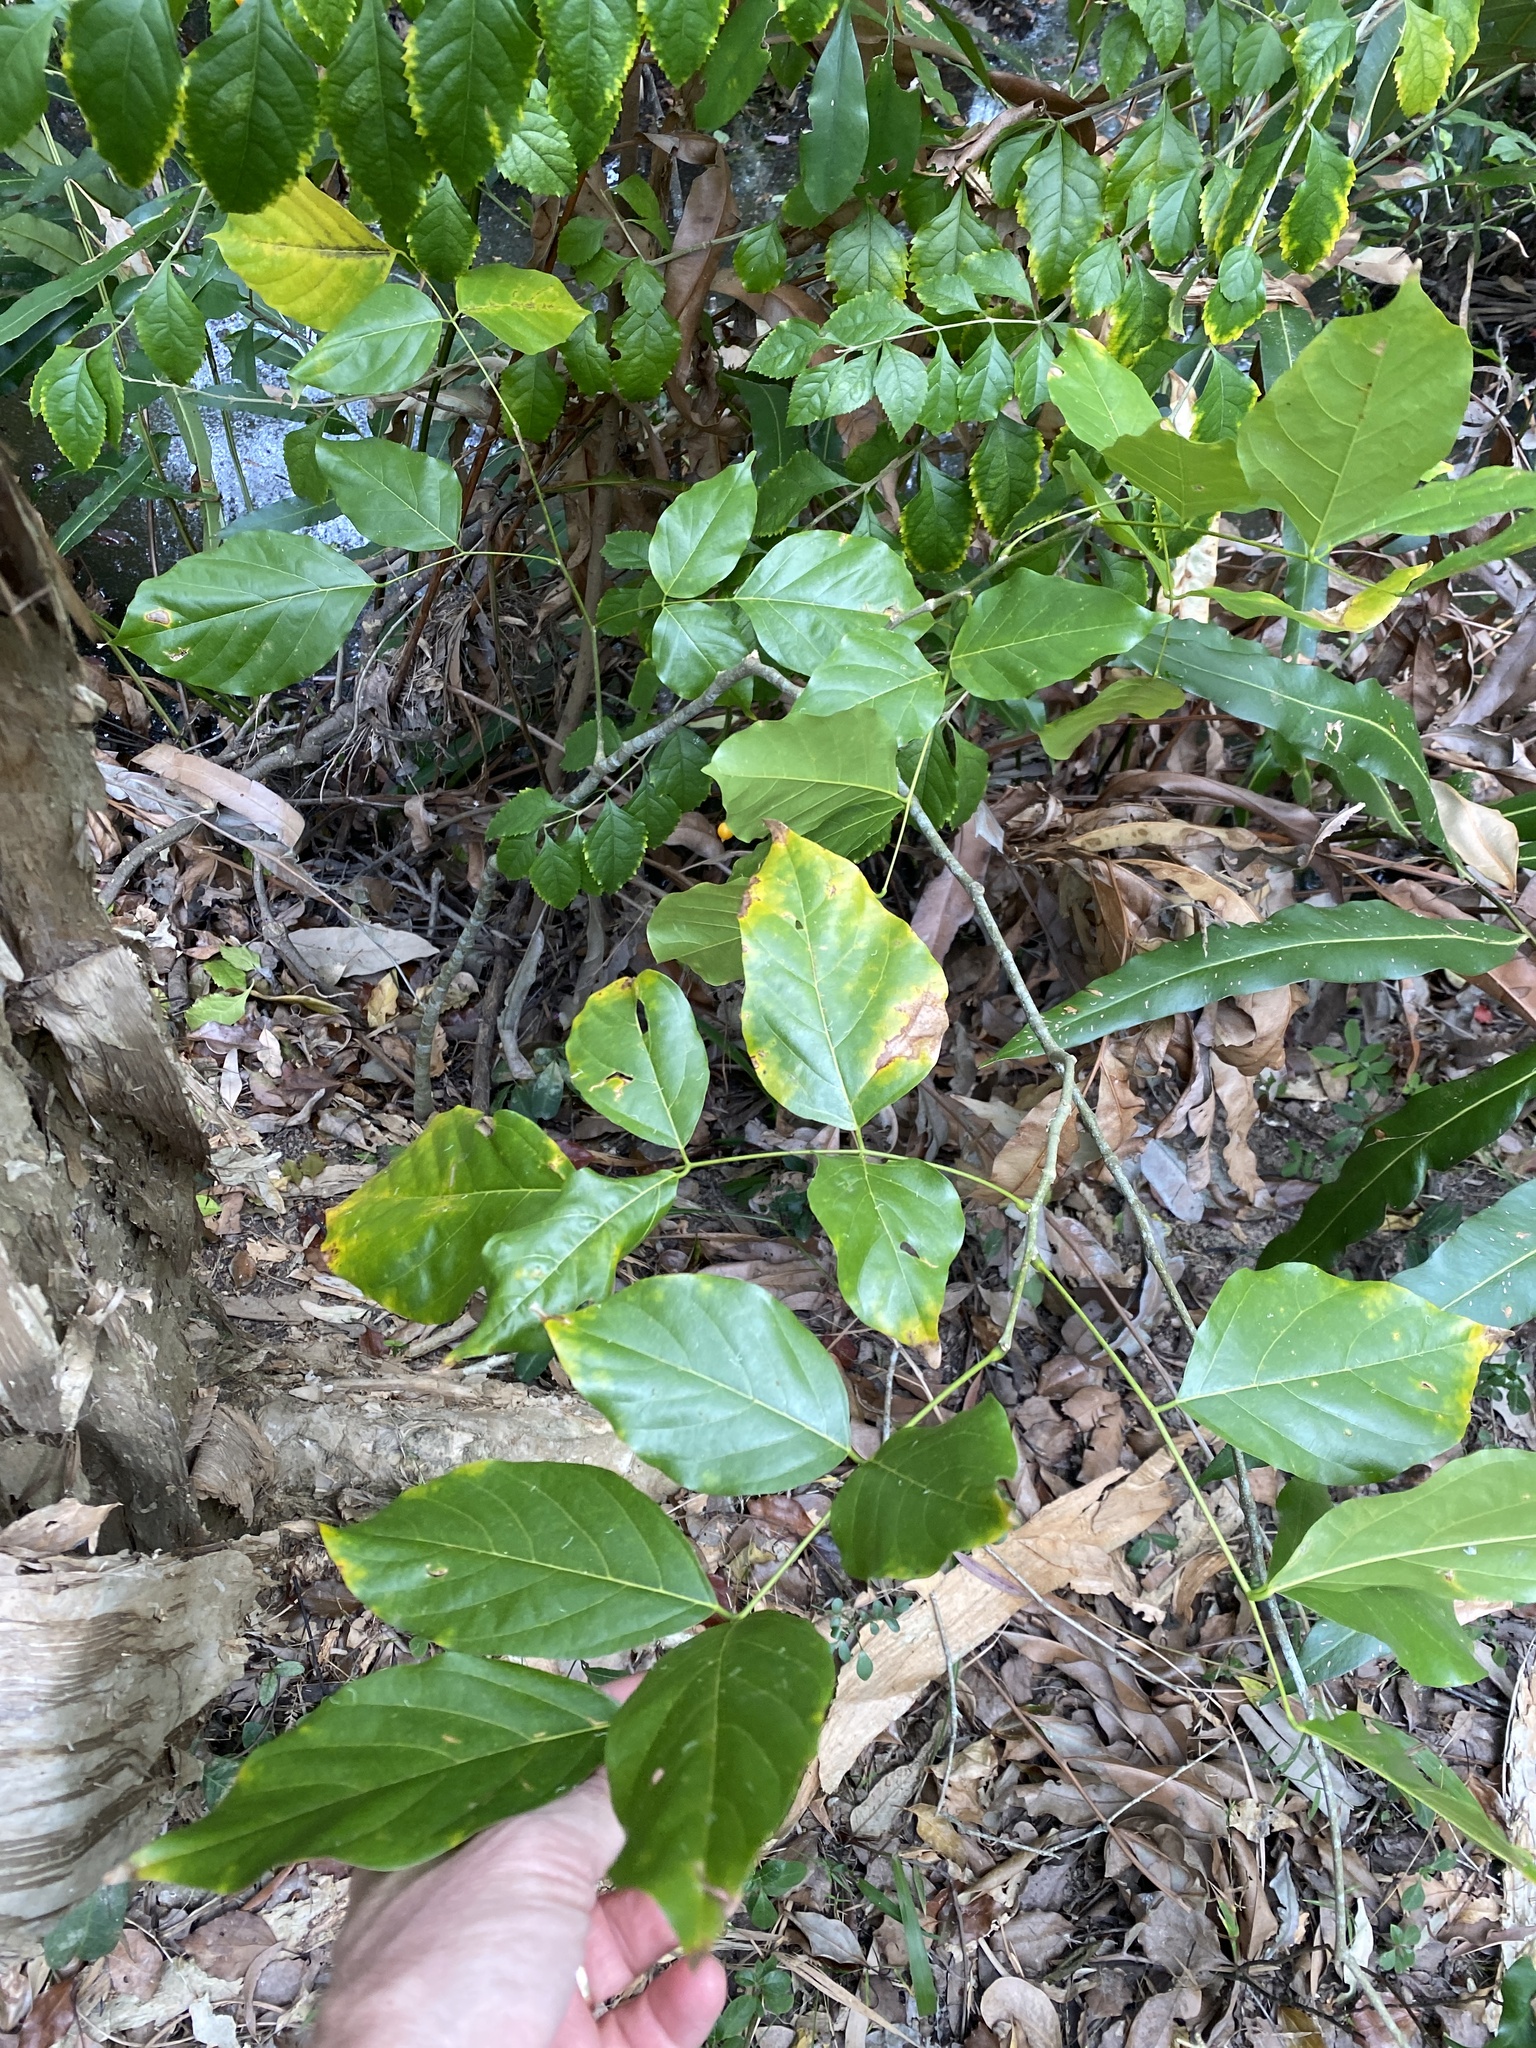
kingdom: Plantae
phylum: Tracheophyta
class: Magnoliopsida
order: Fabales
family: Fabaceae
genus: Pongamia
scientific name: Pongamia pinnata
